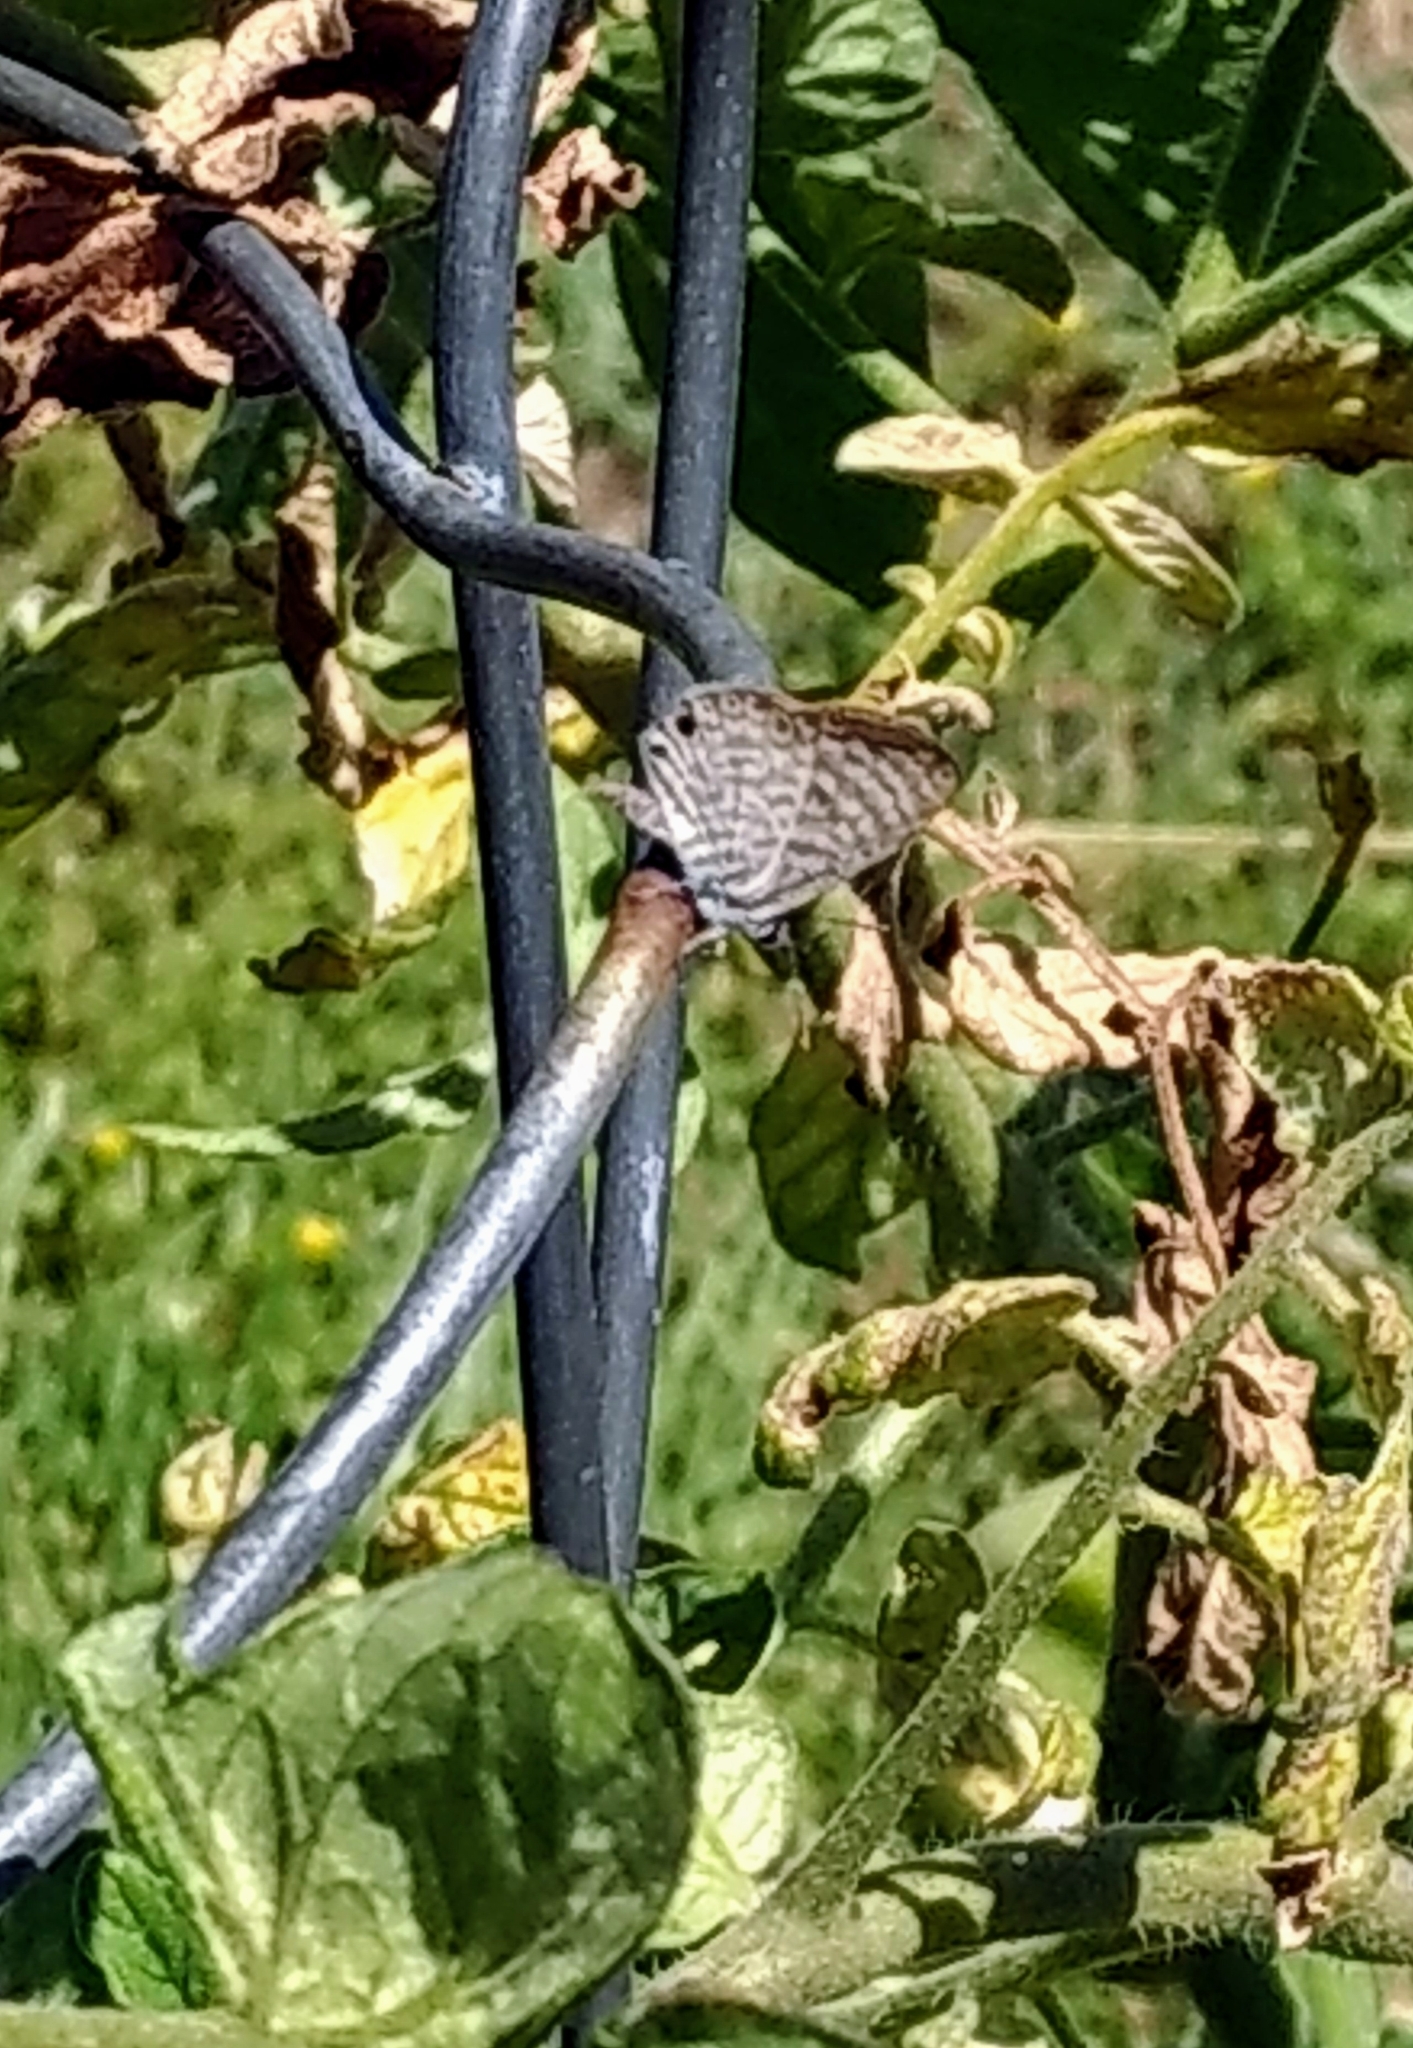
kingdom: Animalia
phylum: Arthropoda
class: Insecta
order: Lepidoptera
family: Lycaenidae
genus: Leptotes
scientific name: Leptotes marina
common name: Marine blue
